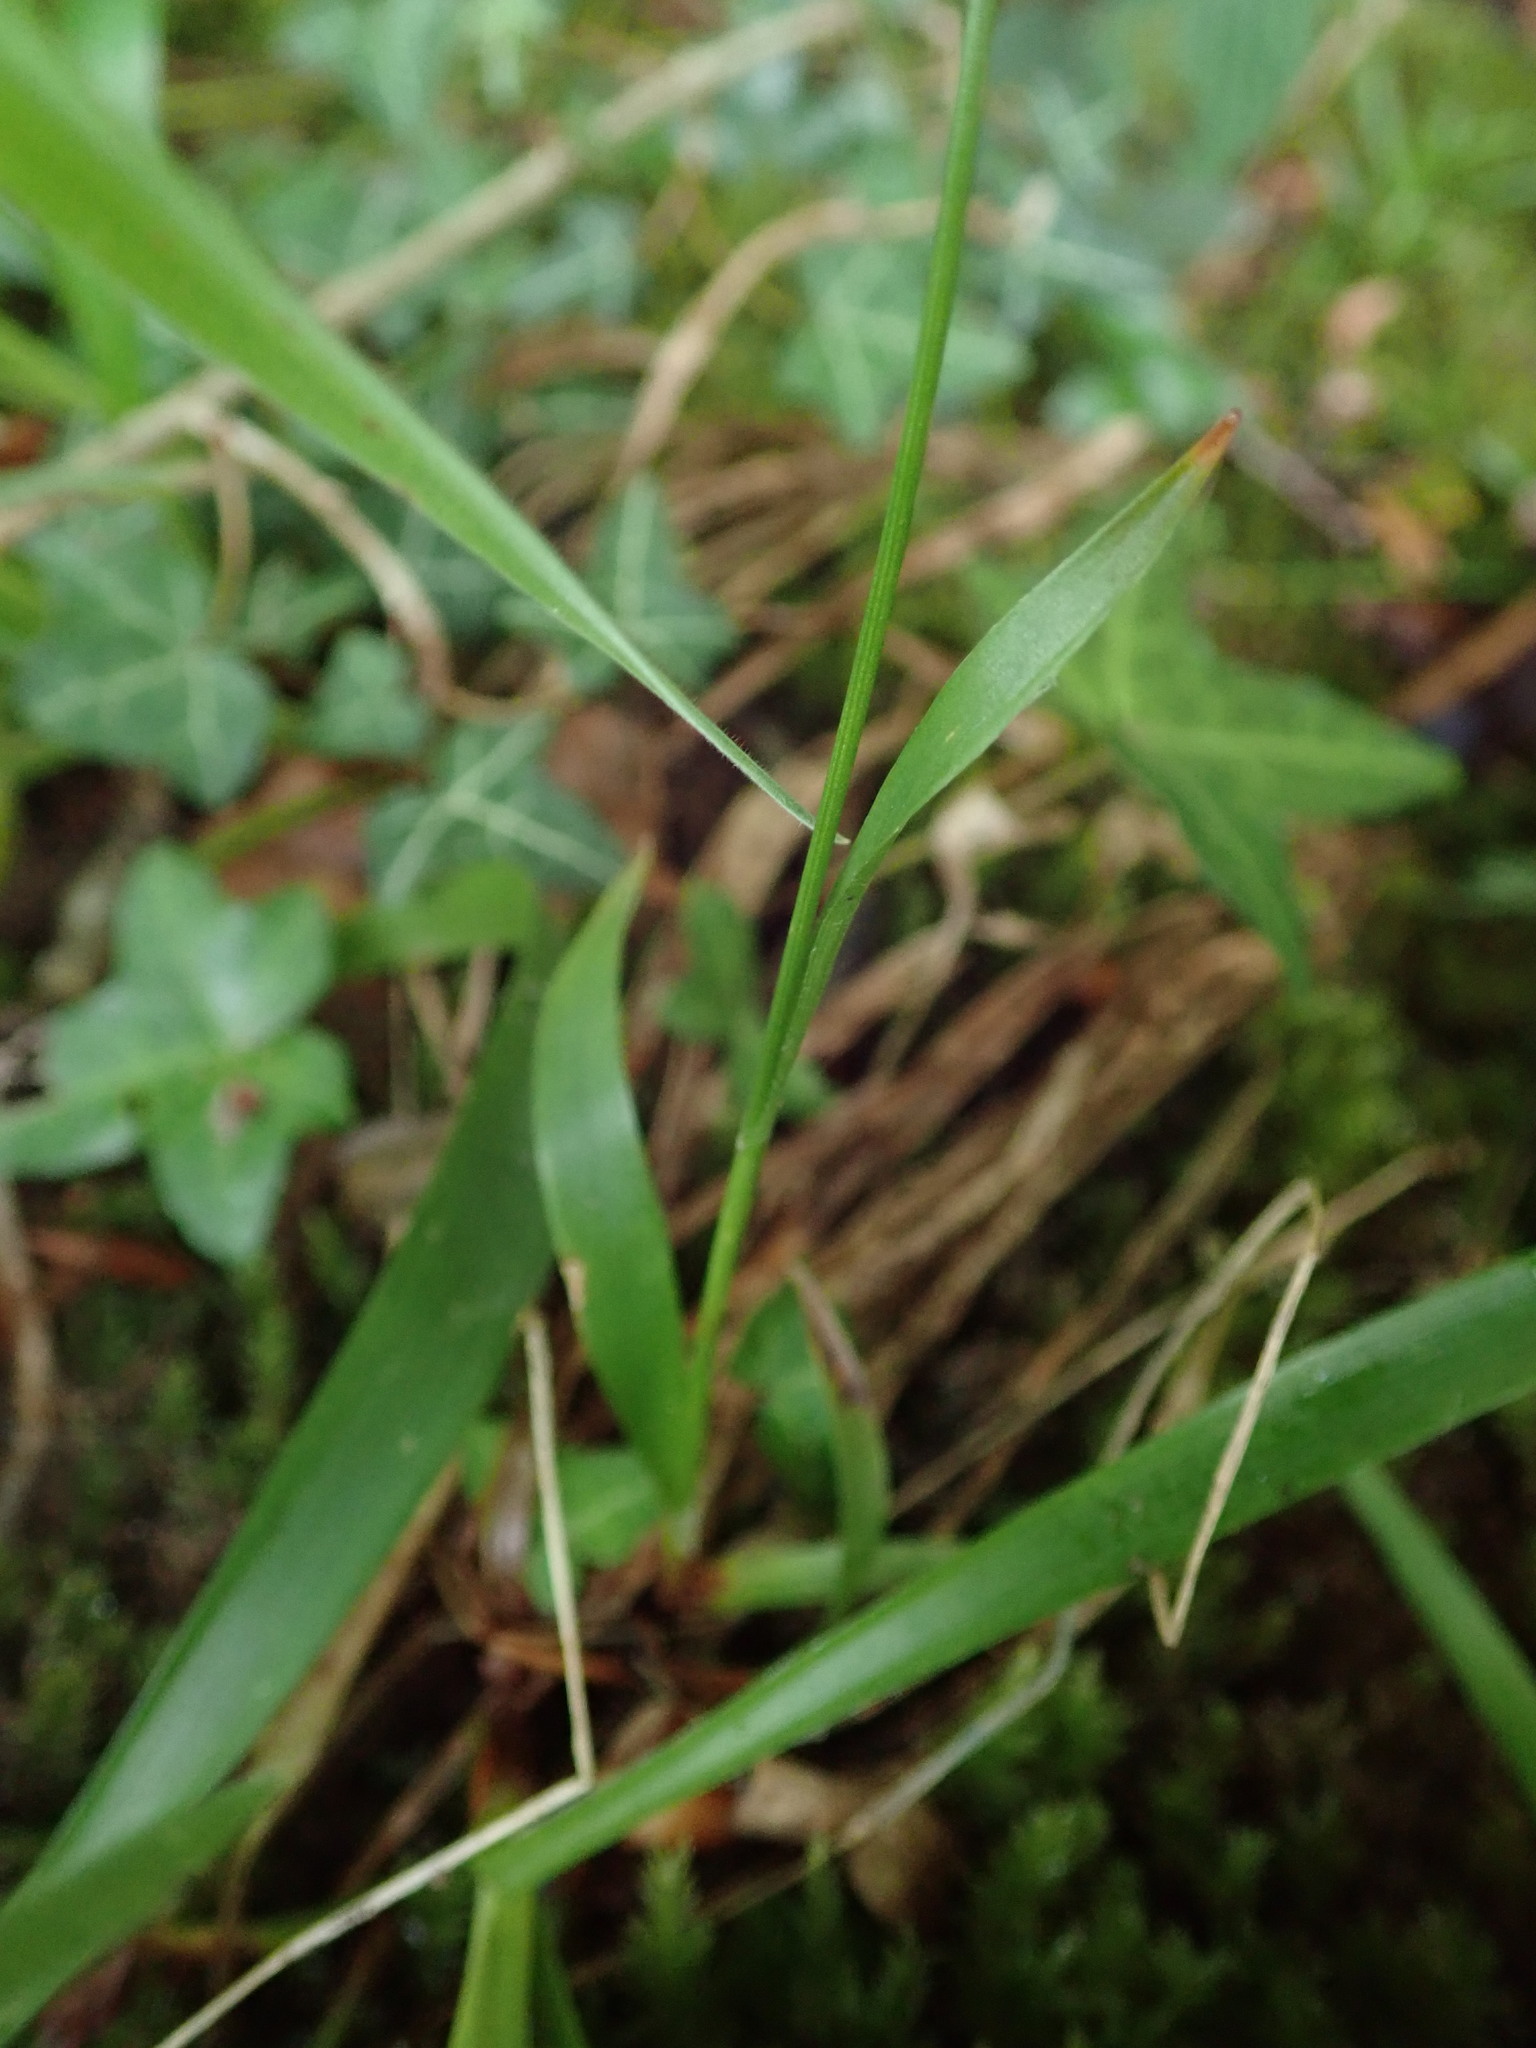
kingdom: Plantae
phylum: Tracheophyta
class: Liliopsida
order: Poales
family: Juncaceae
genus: Luzula
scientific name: Luzula pilosa
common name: Hairy wood-rush
